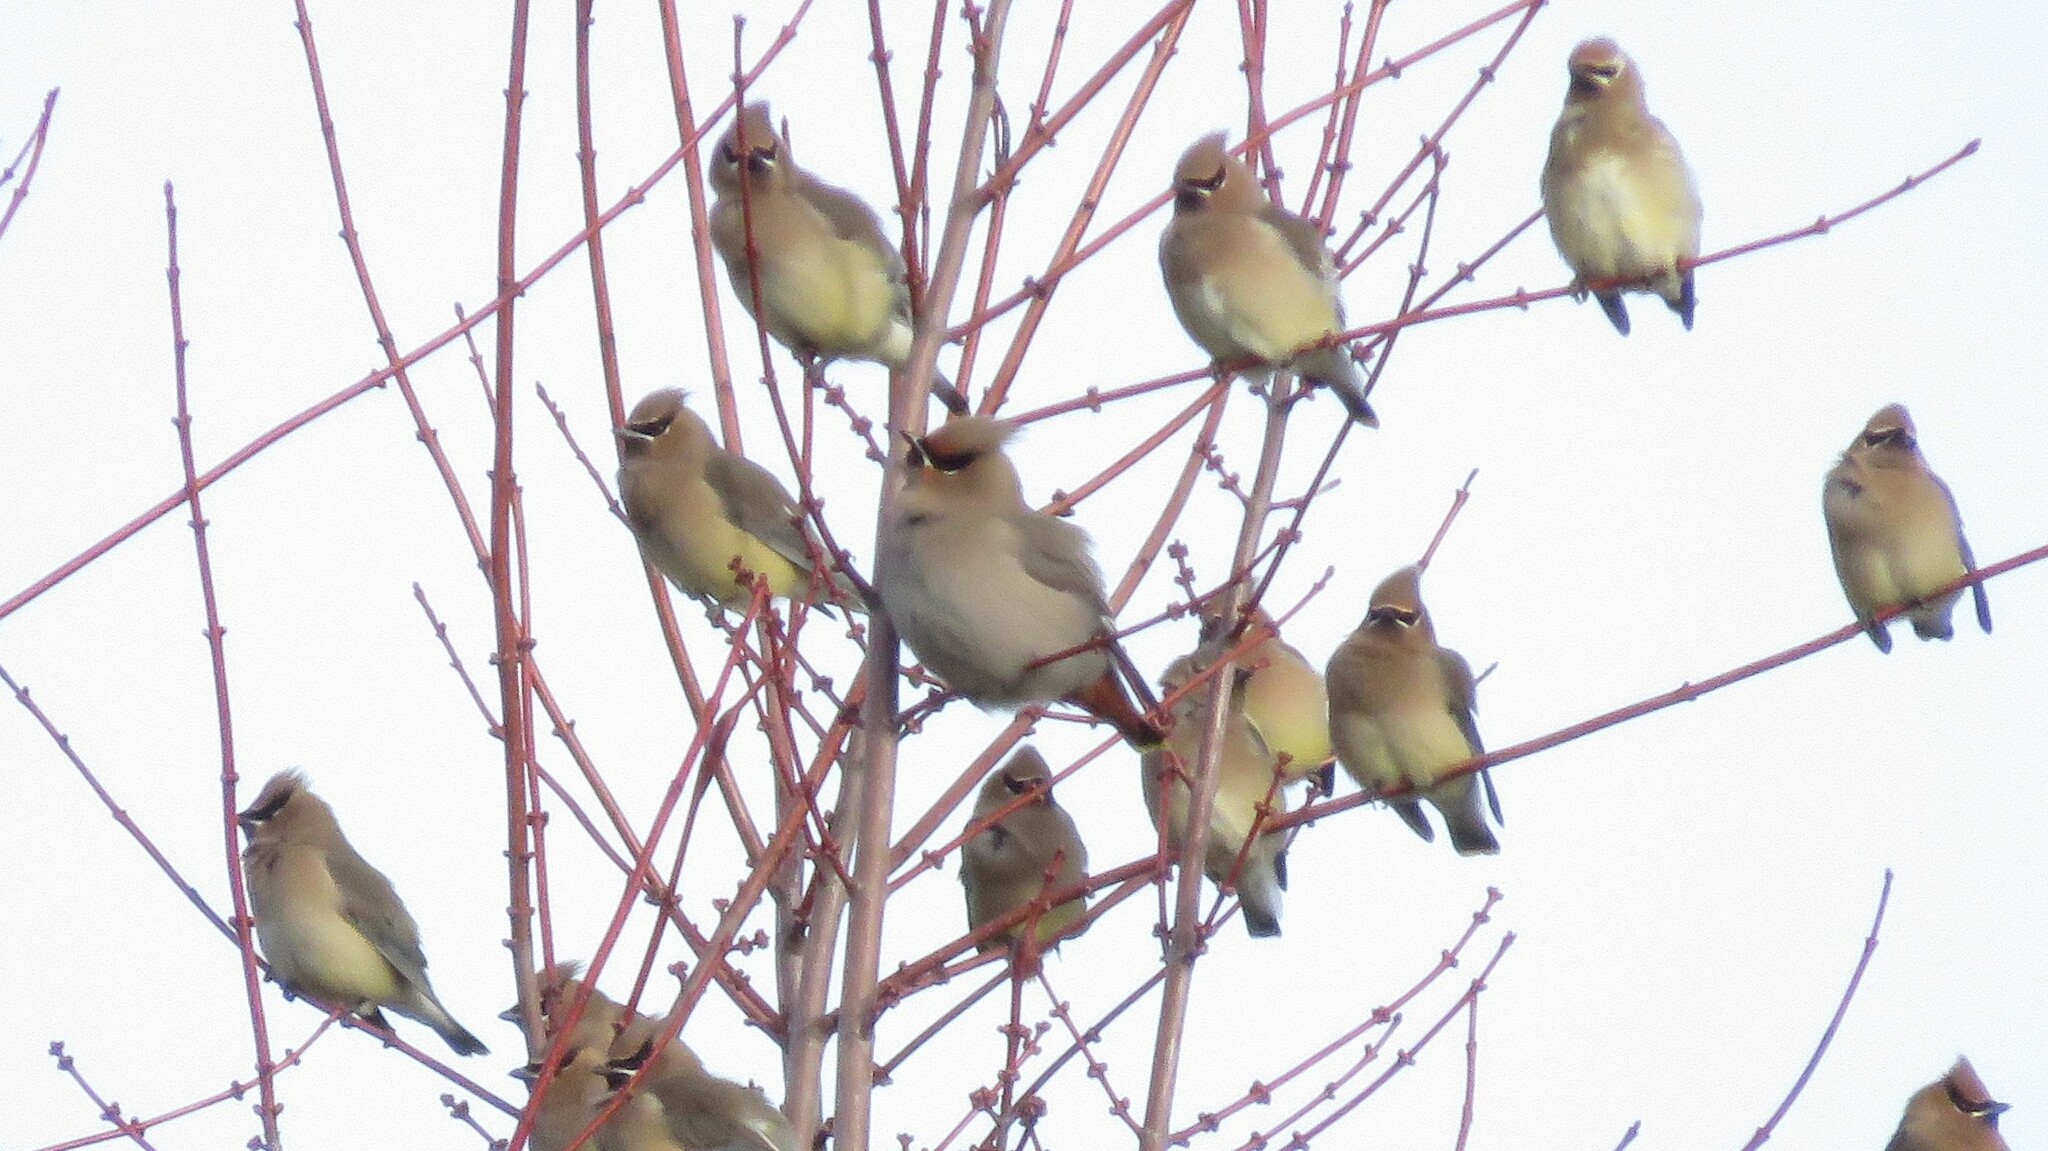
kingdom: Animalia
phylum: Chordata
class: Aves
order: Passeriformes
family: Bombycillidae
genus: Bombycilla
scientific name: Bombycilla garrulus
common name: Bohemian waxwing
